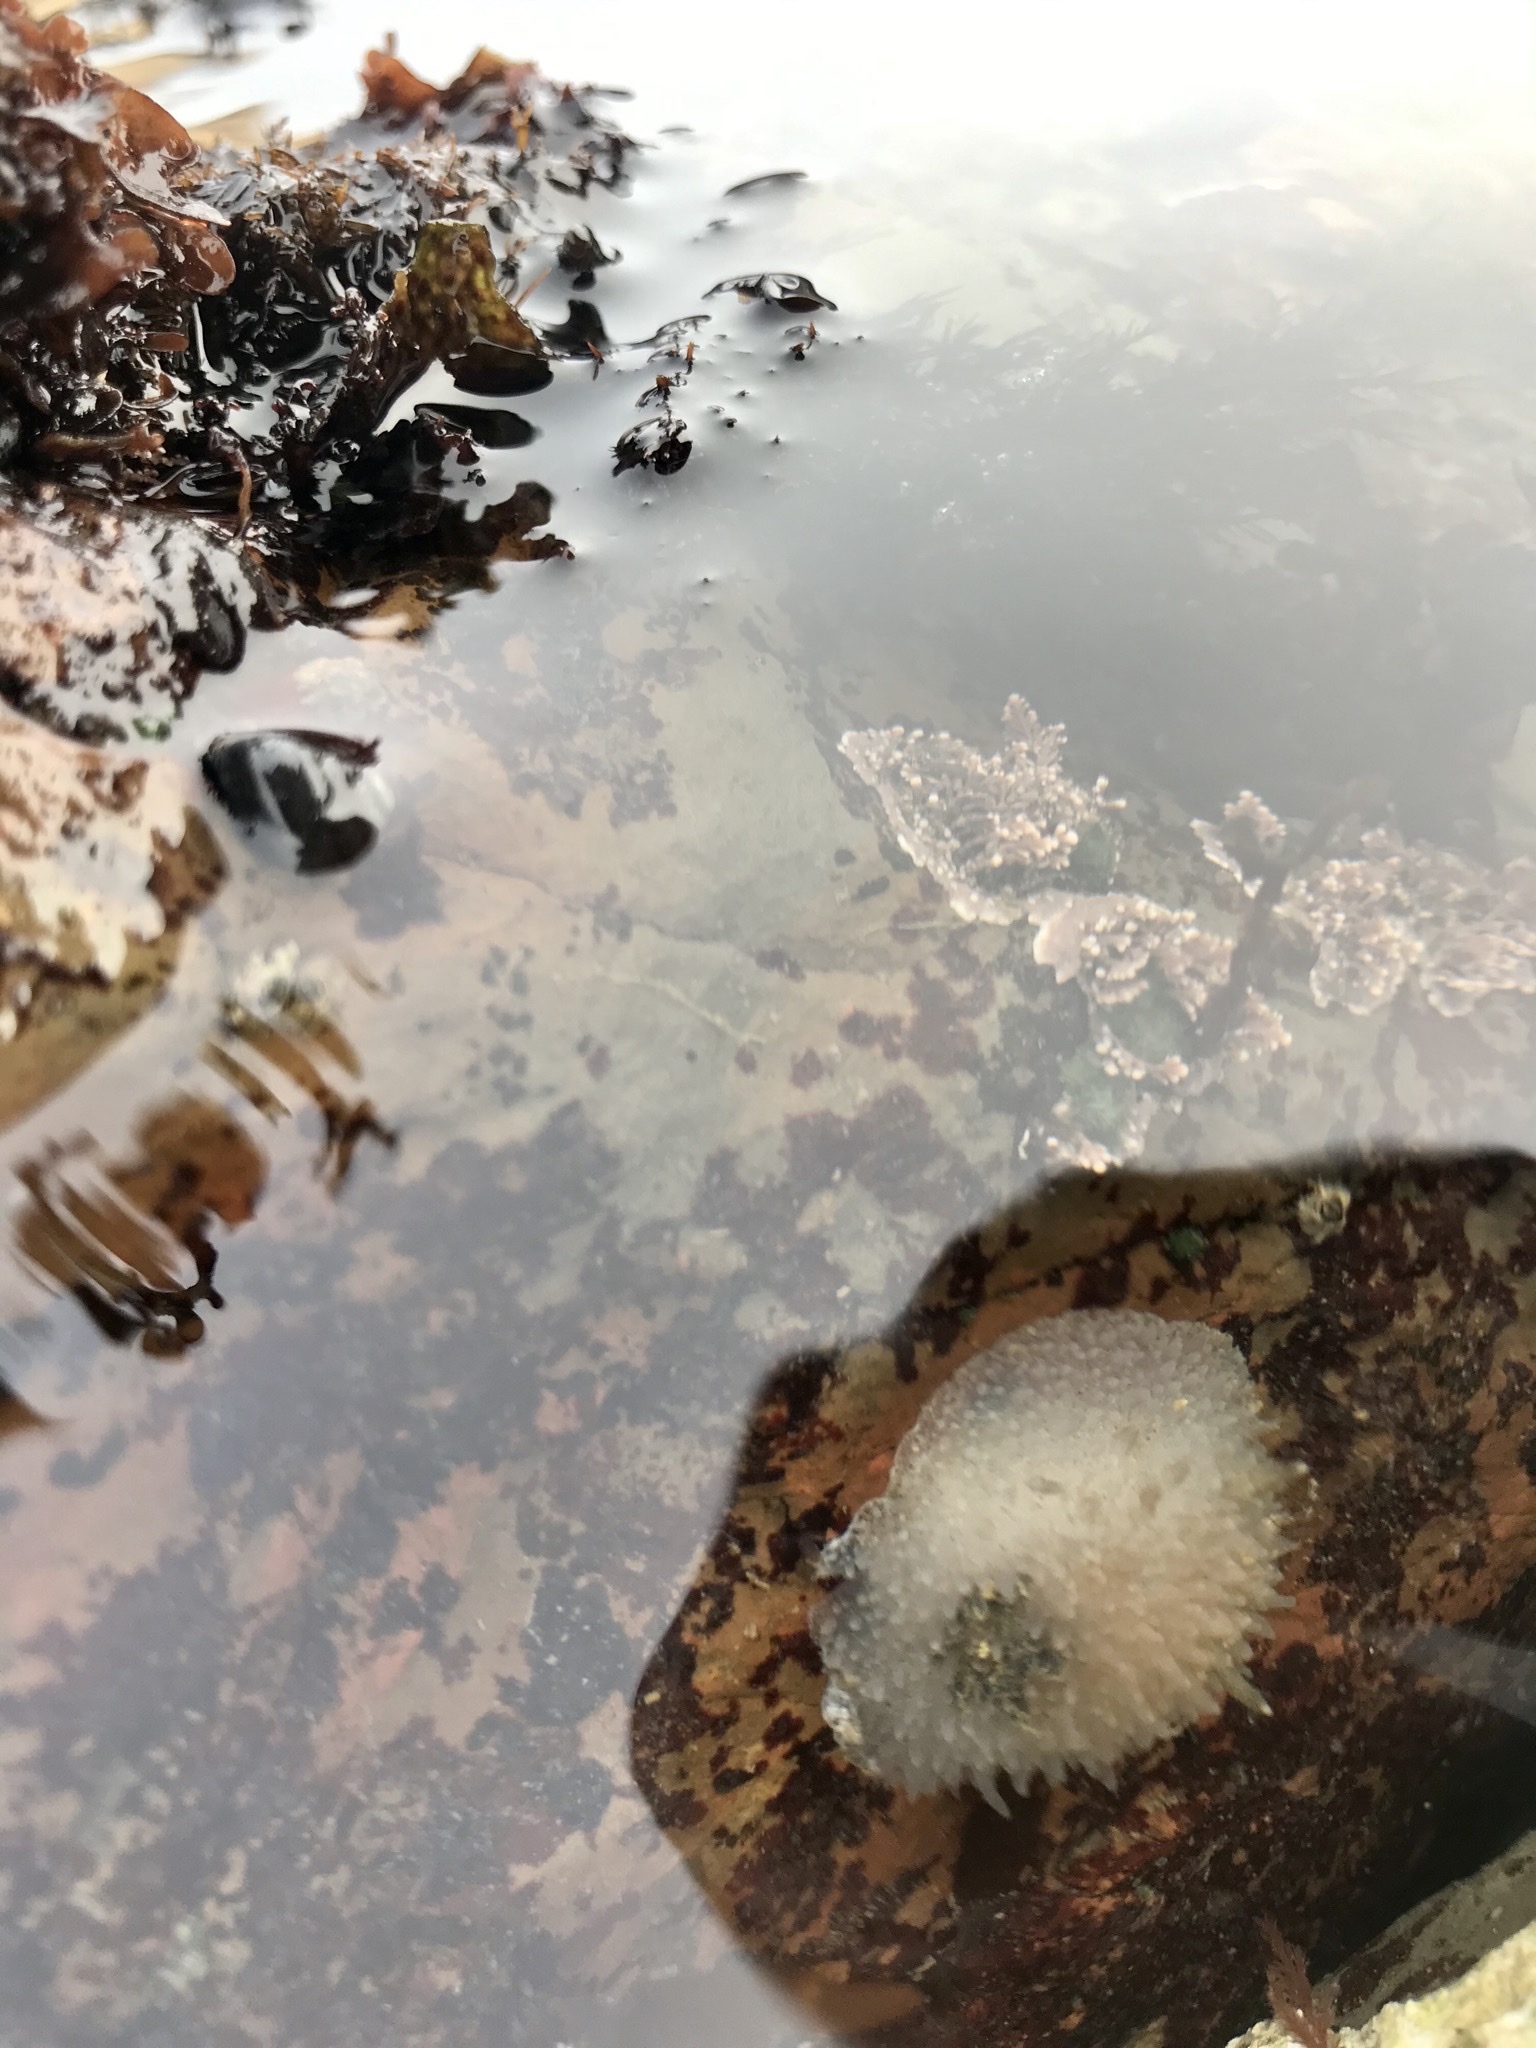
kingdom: Animalia
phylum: Mollusca
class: Gastropoda
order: Nudibranchia
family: Onchidorididae
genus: Acanthodoris
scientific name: Acanthodoris rhodoceras
